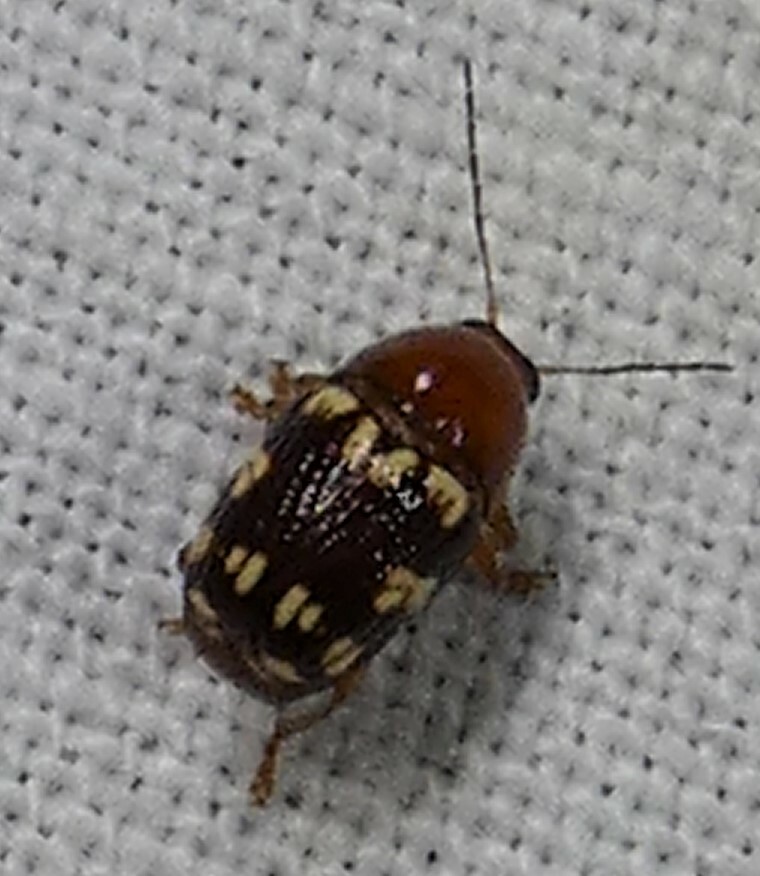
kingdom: Animalia
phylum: Arthropoda
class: Insecta
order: Coleoptera
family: Chrysomelidae
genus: Cryptocephalus
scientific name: Cryptocephalus badius
